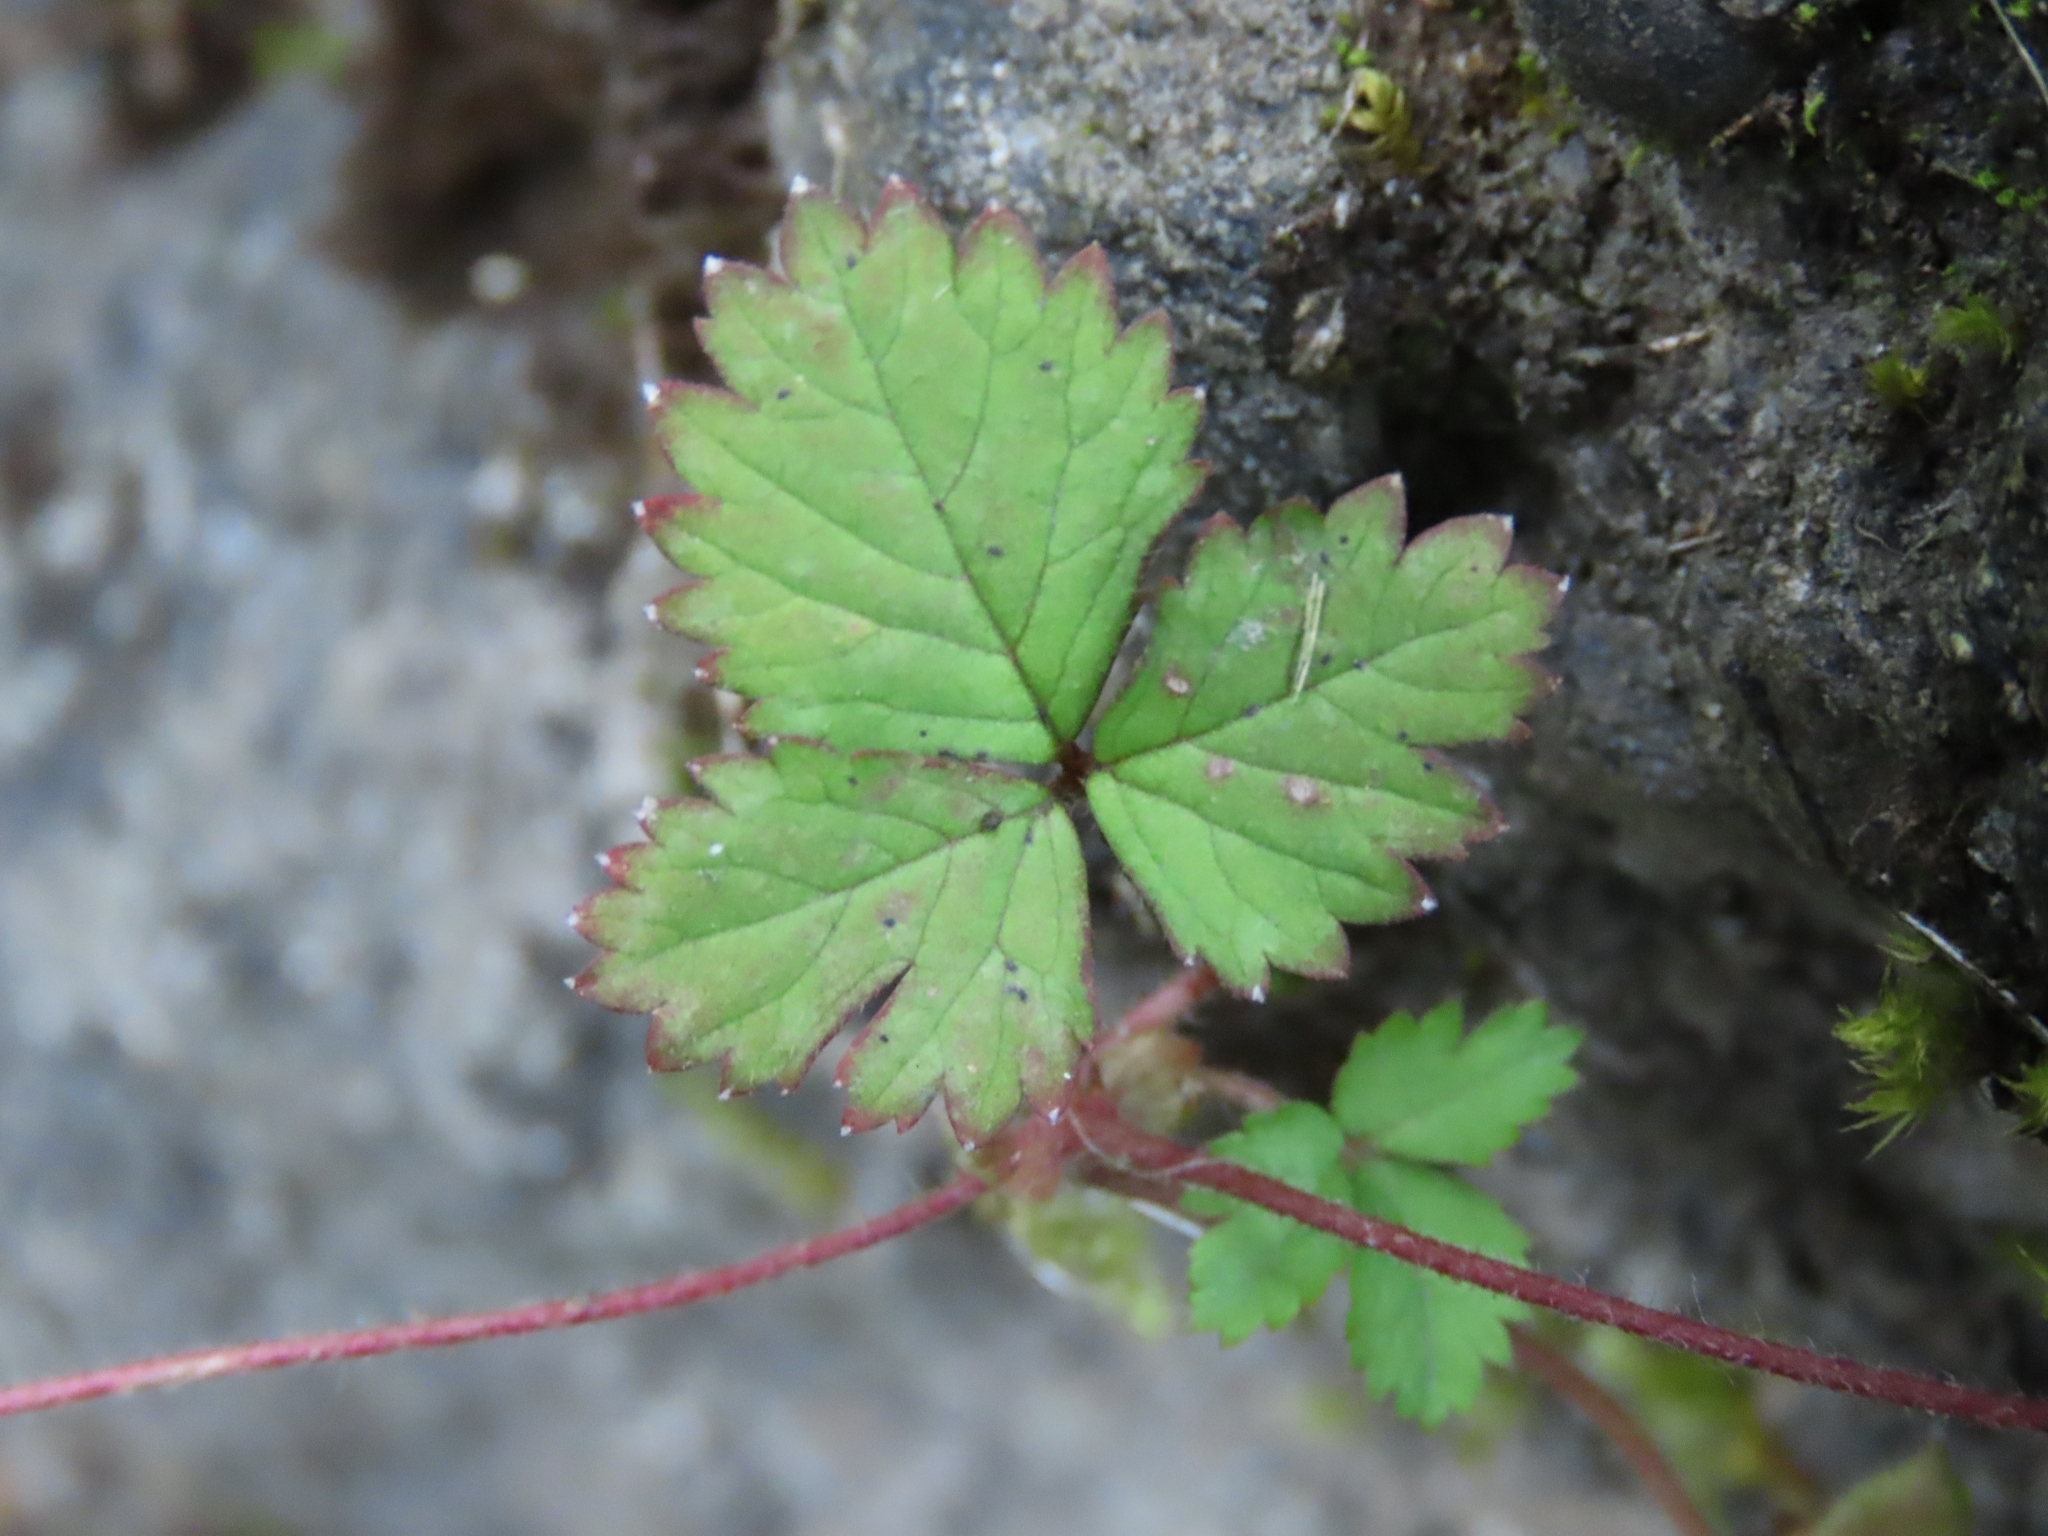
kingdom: Plantae
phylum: Tracheophyta
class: Magnoliopsida
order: Rosales
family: Rosaceae
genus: Potentilla
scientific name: Potentilla wallichiana
